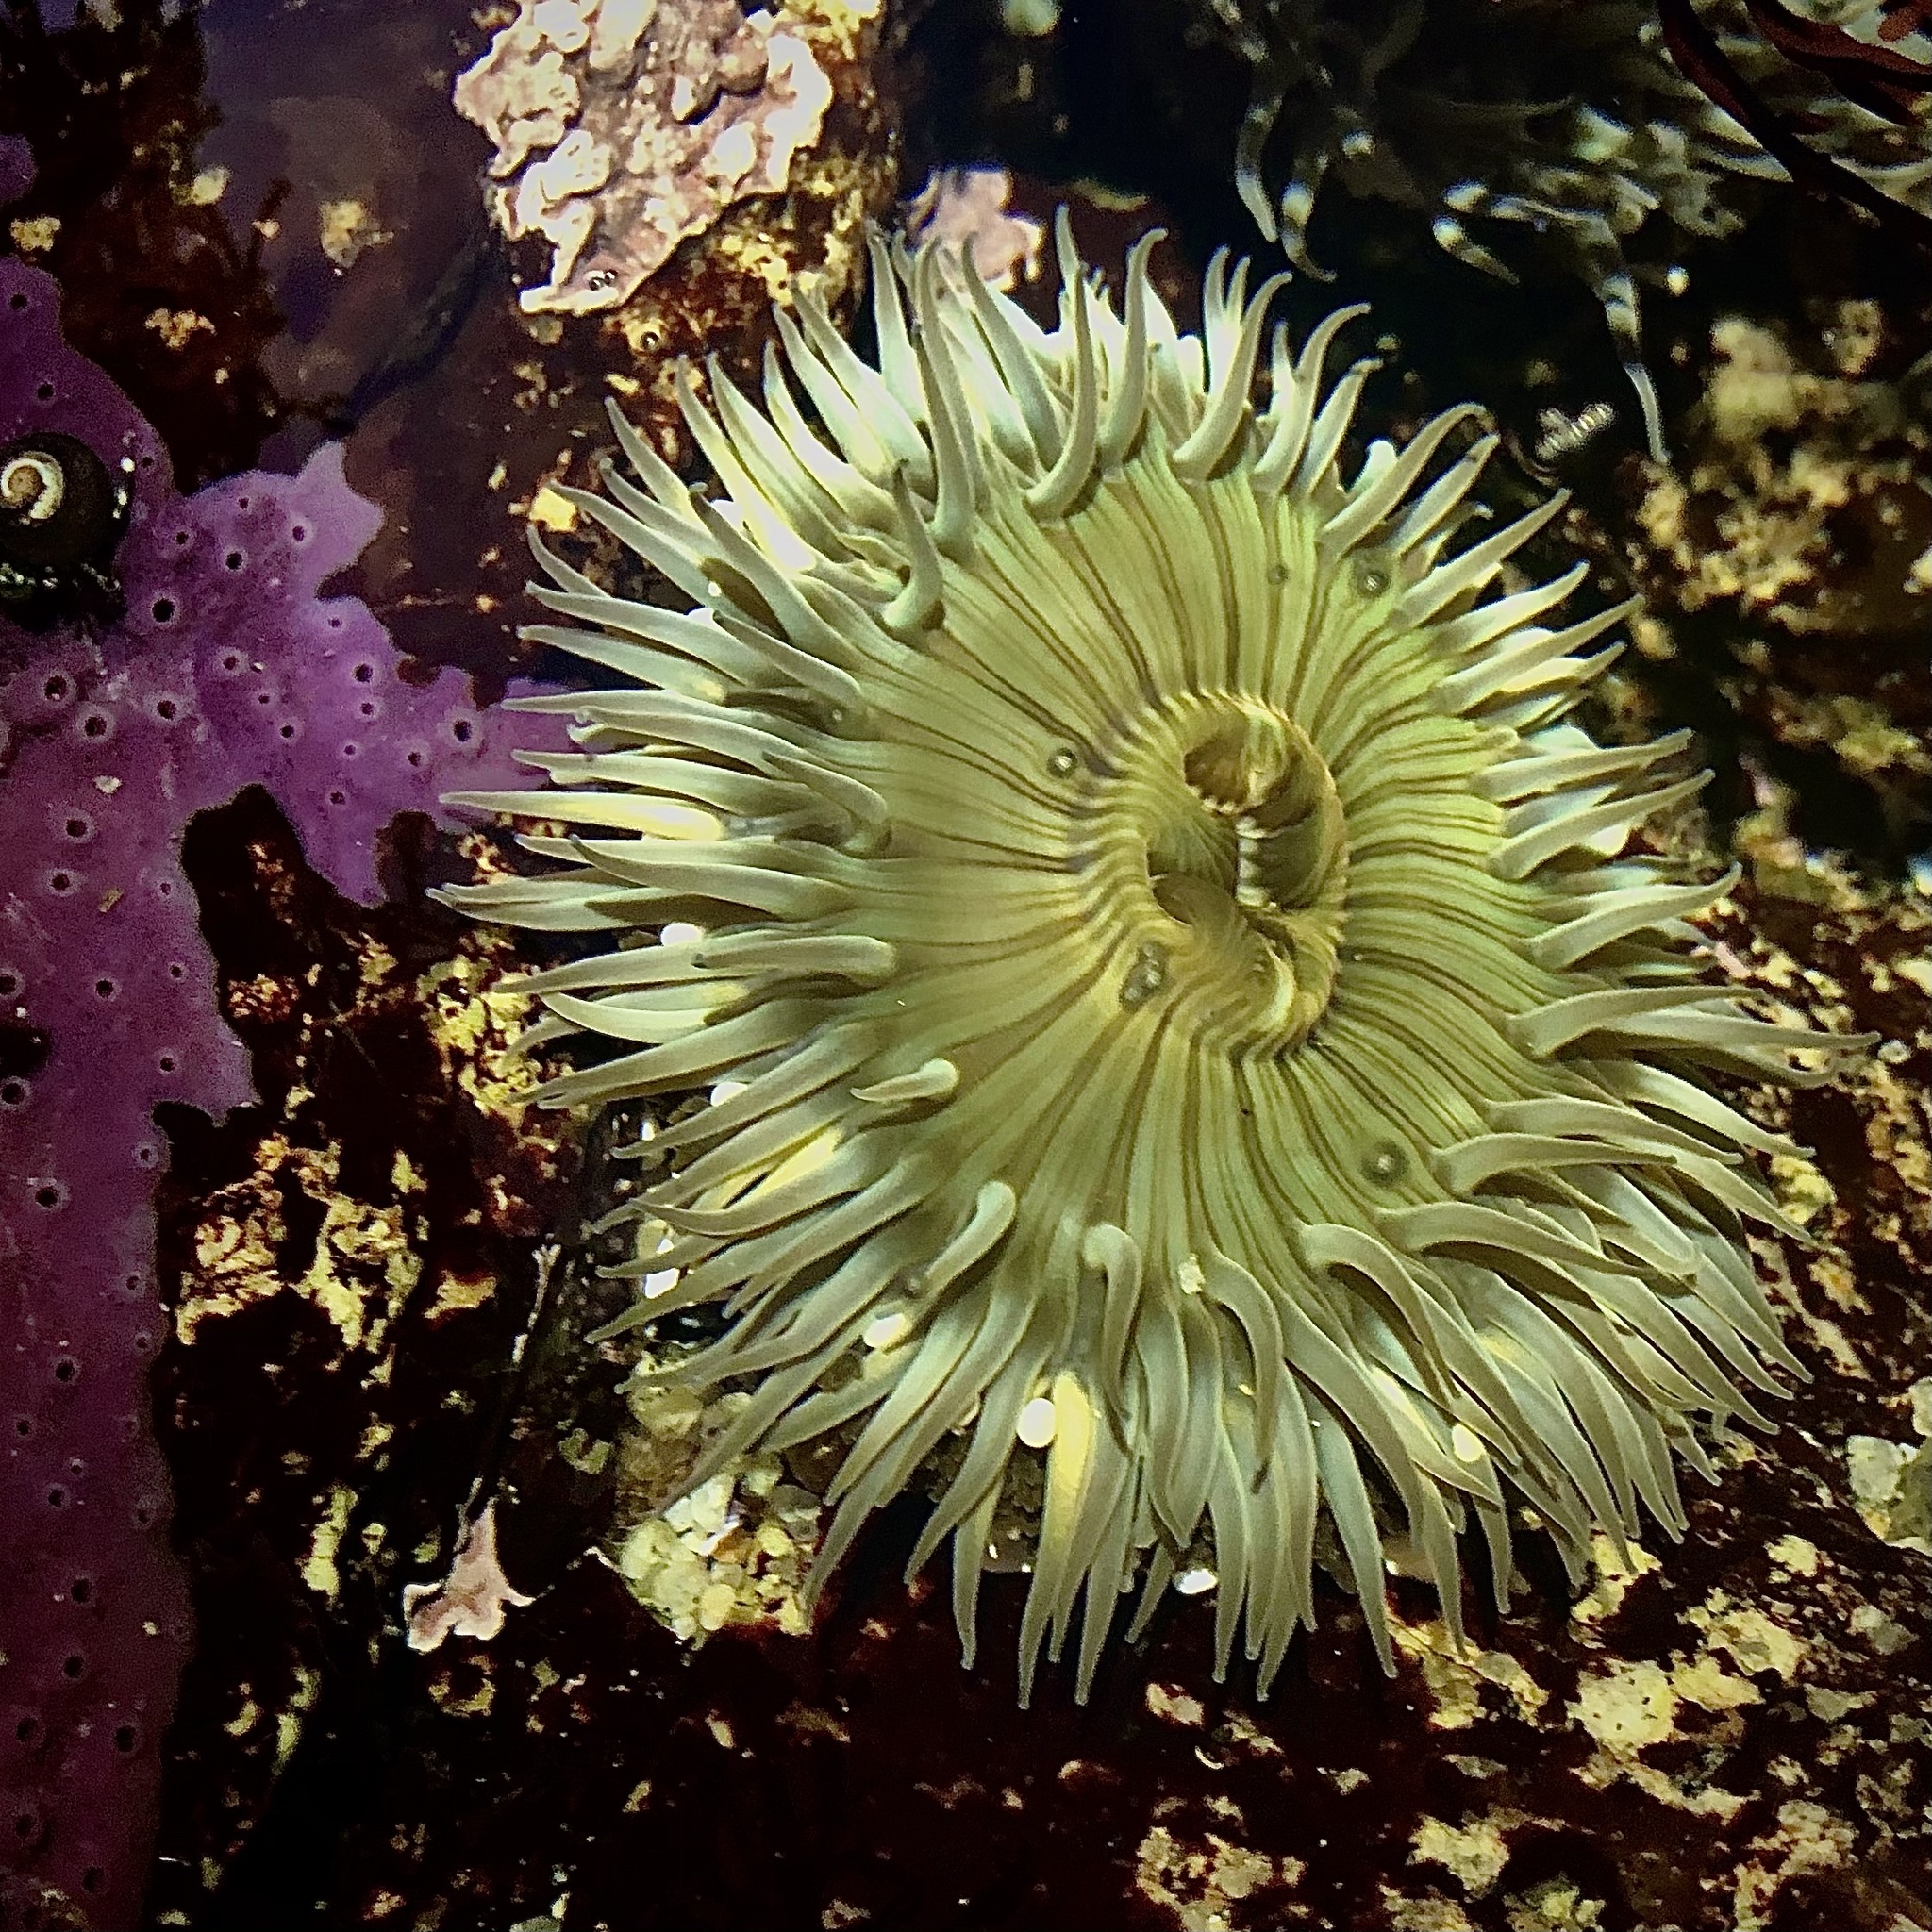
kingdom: Animalia
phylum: Cnidaria
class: Anthozoa
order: Actiniaria
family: Actiniidae
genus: Anthopleura
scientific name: Anthopleura sola
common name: Sun anemone
